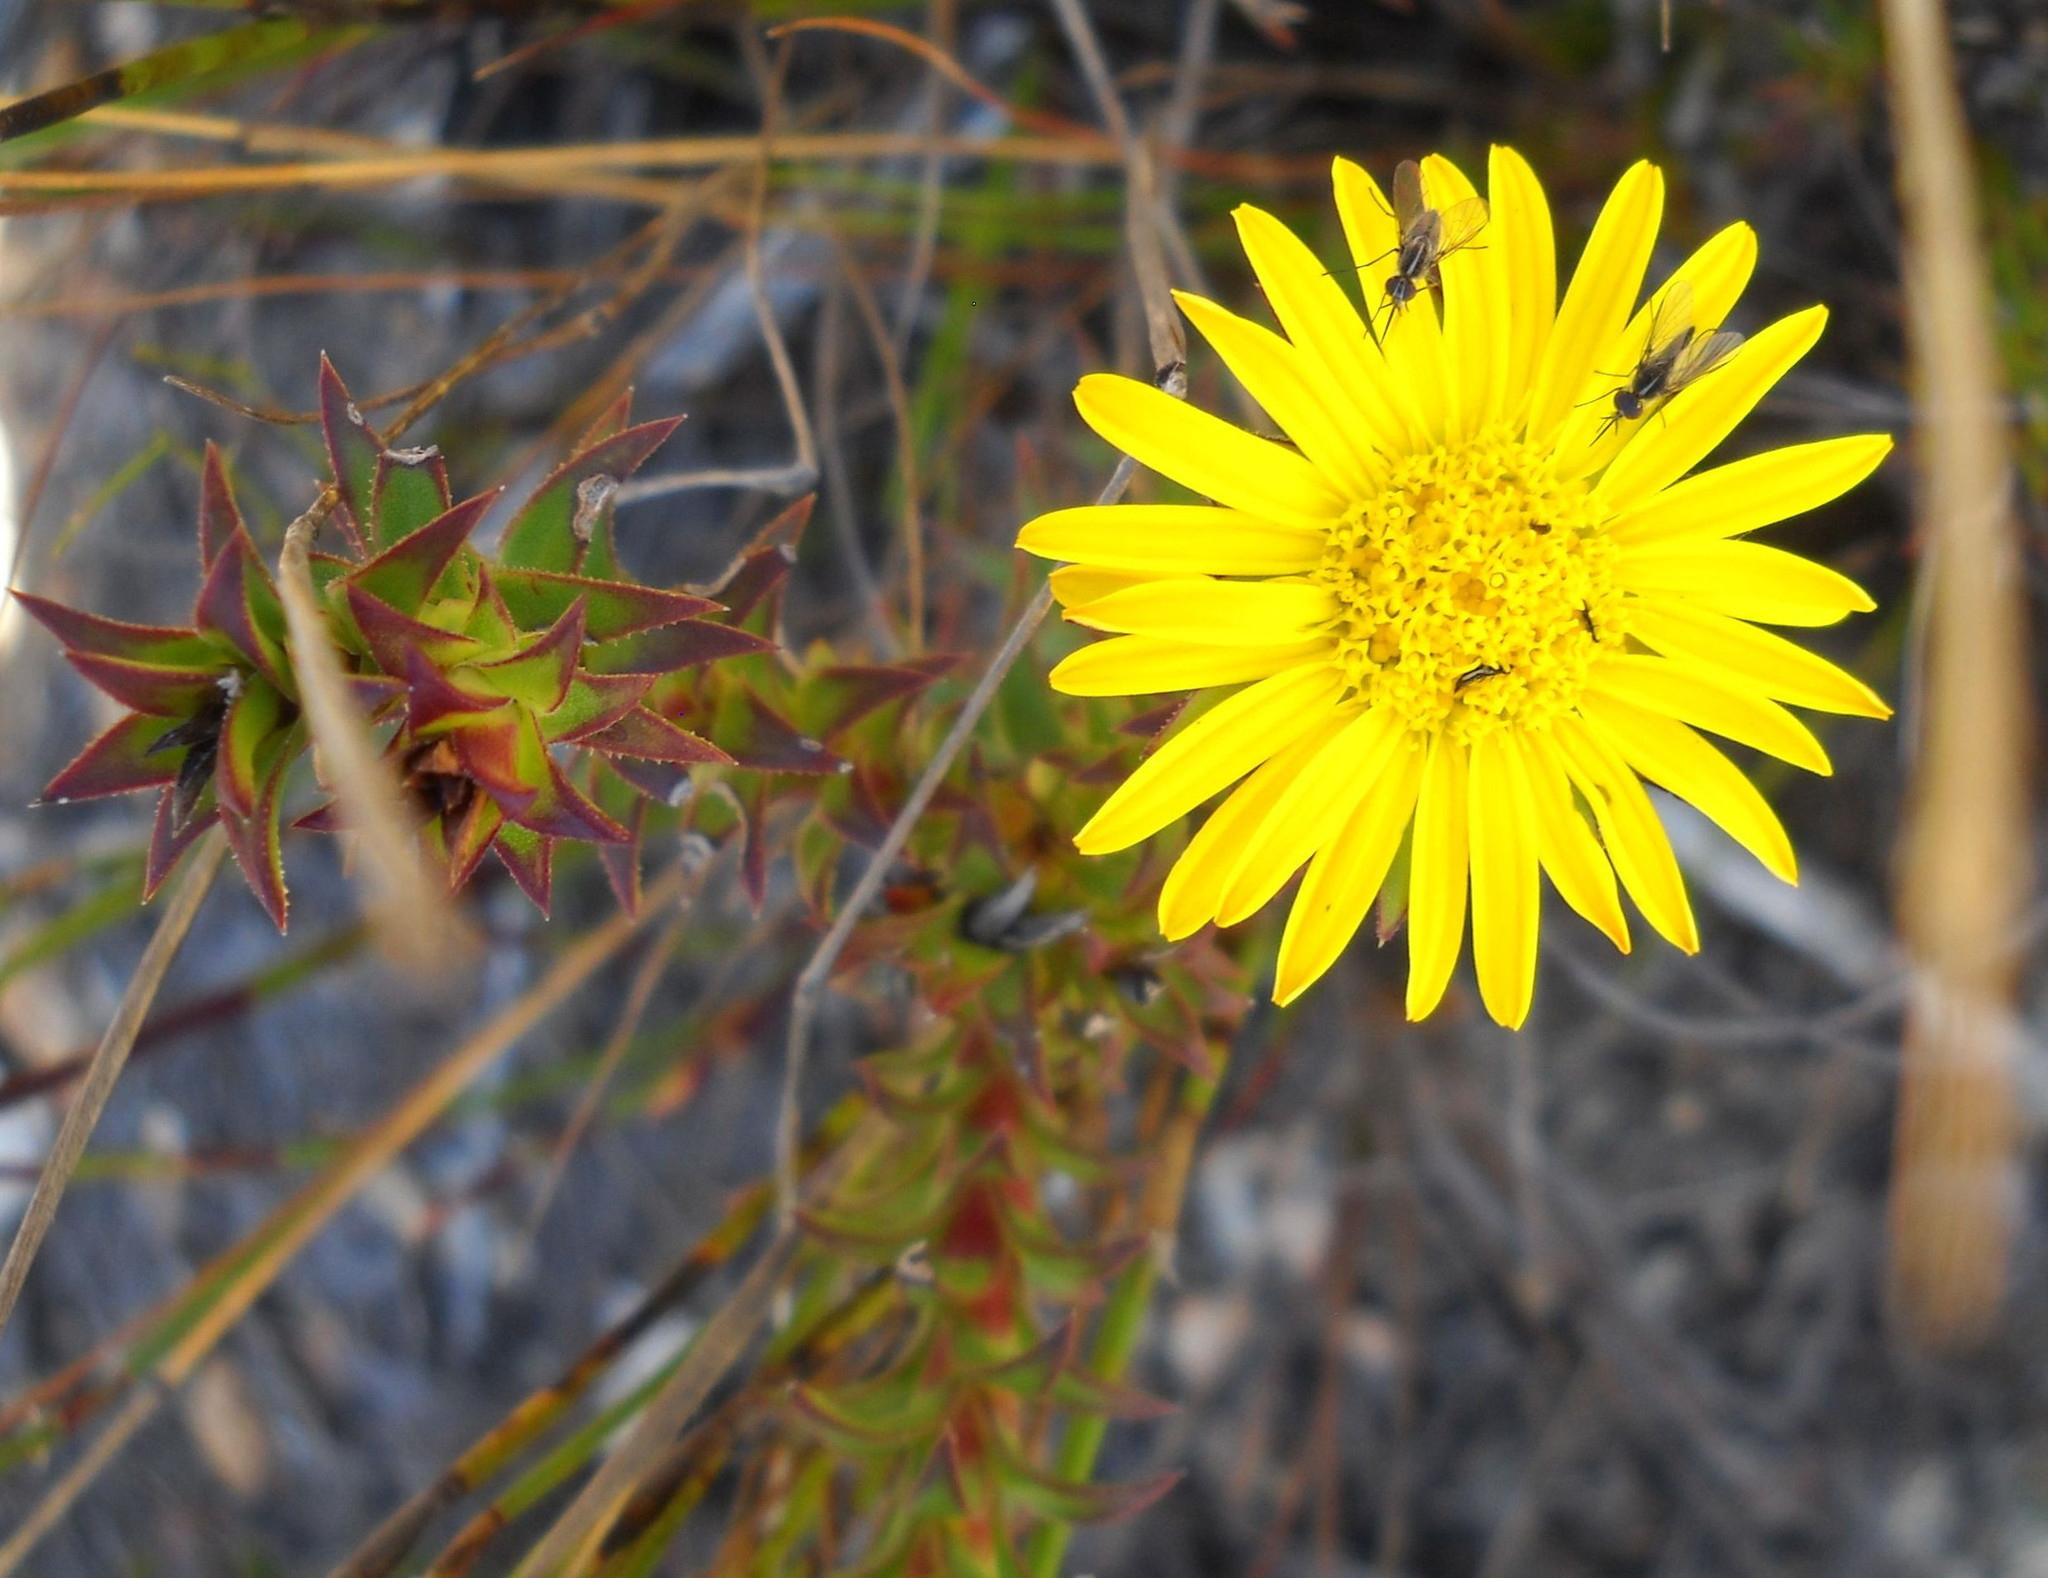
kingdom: Plantae
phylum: Tracheophyta
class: Magnoliopsida
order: Asterales
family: Asteraceae
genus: Oedera
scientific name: Oedera imbricata
